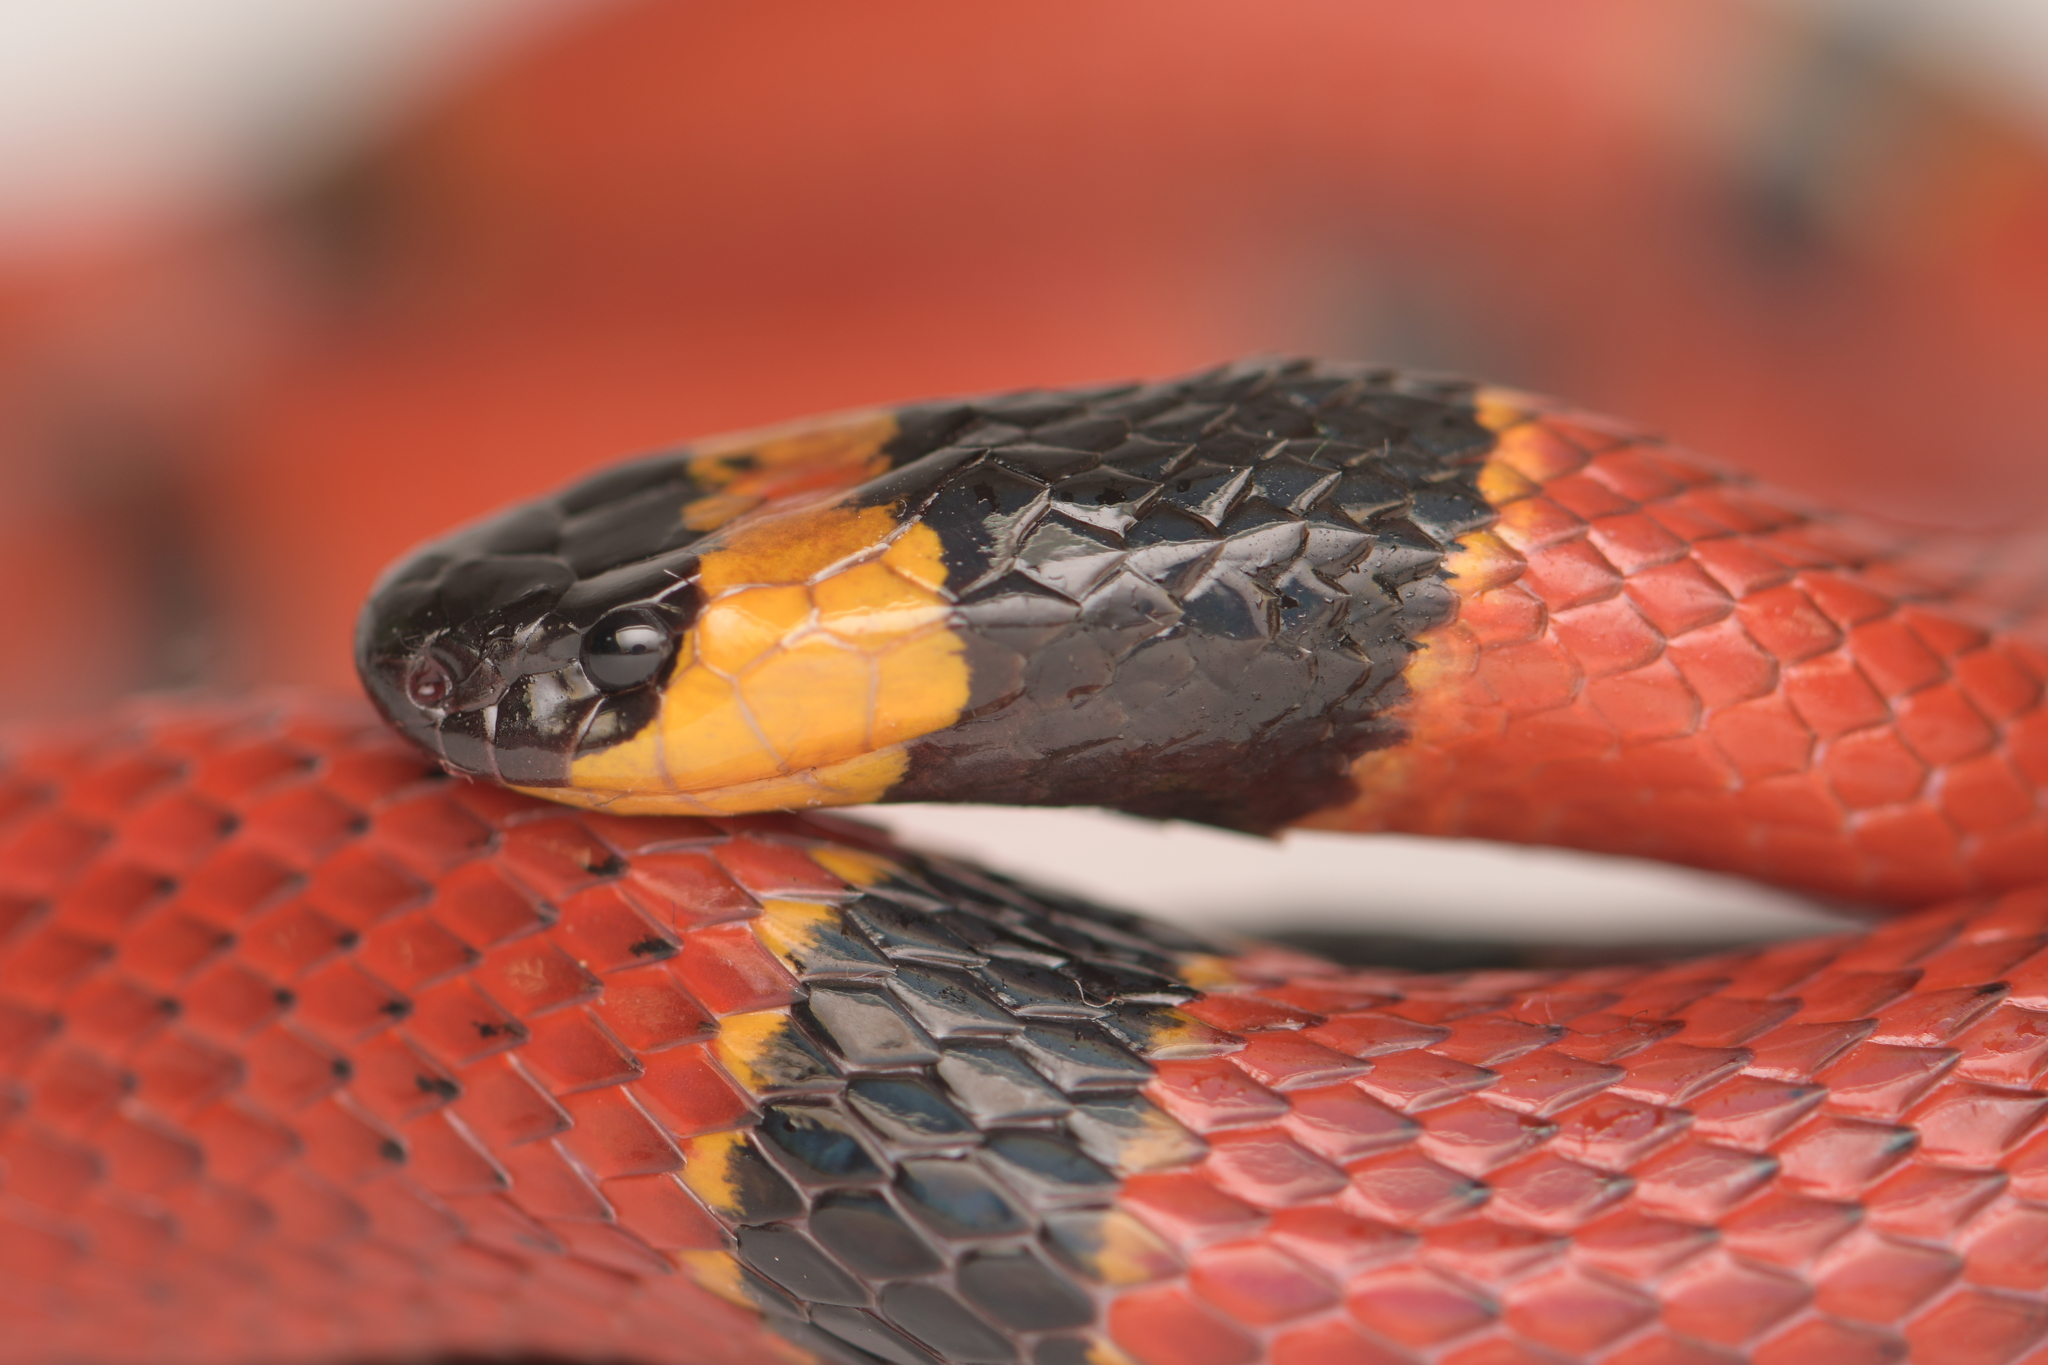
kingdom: Animalia
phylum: Chordata
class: Squamata
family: Elapidae
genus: Micrurus
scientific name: Micrurus browni
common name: Brown's coral snake
